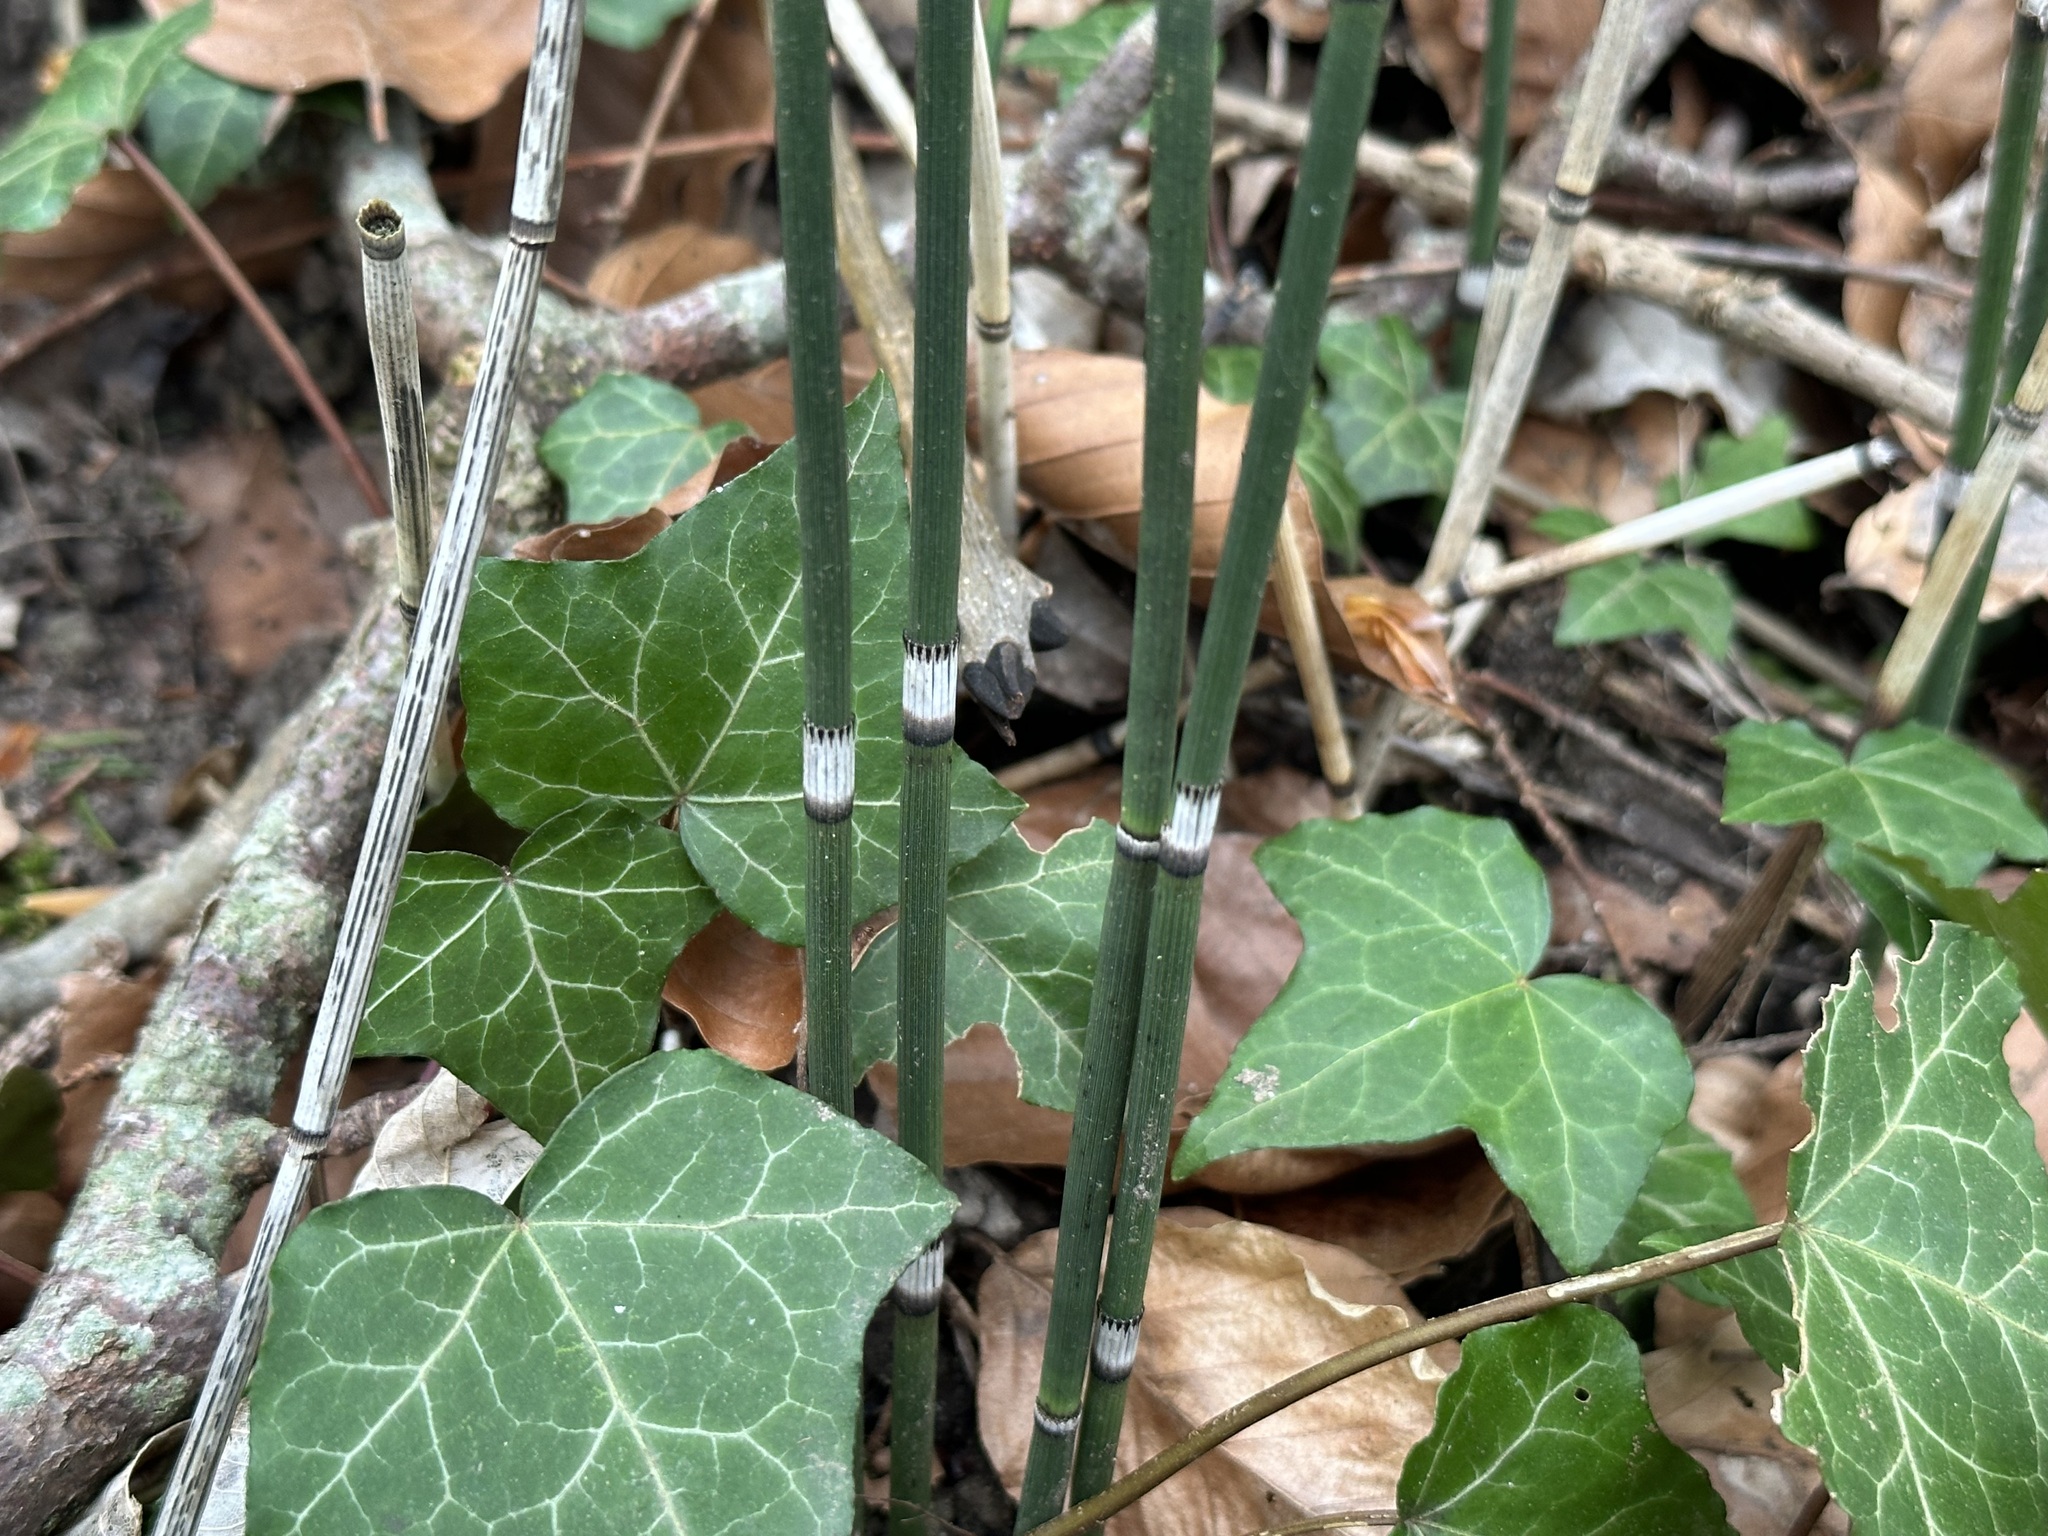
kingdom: Plantae
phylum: Tracheophyta
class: Polypodiopsida
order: Equisetales
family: Equisetaceae
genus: Equisetum
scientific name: Equisetum hyemale
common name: Rough horsetail
